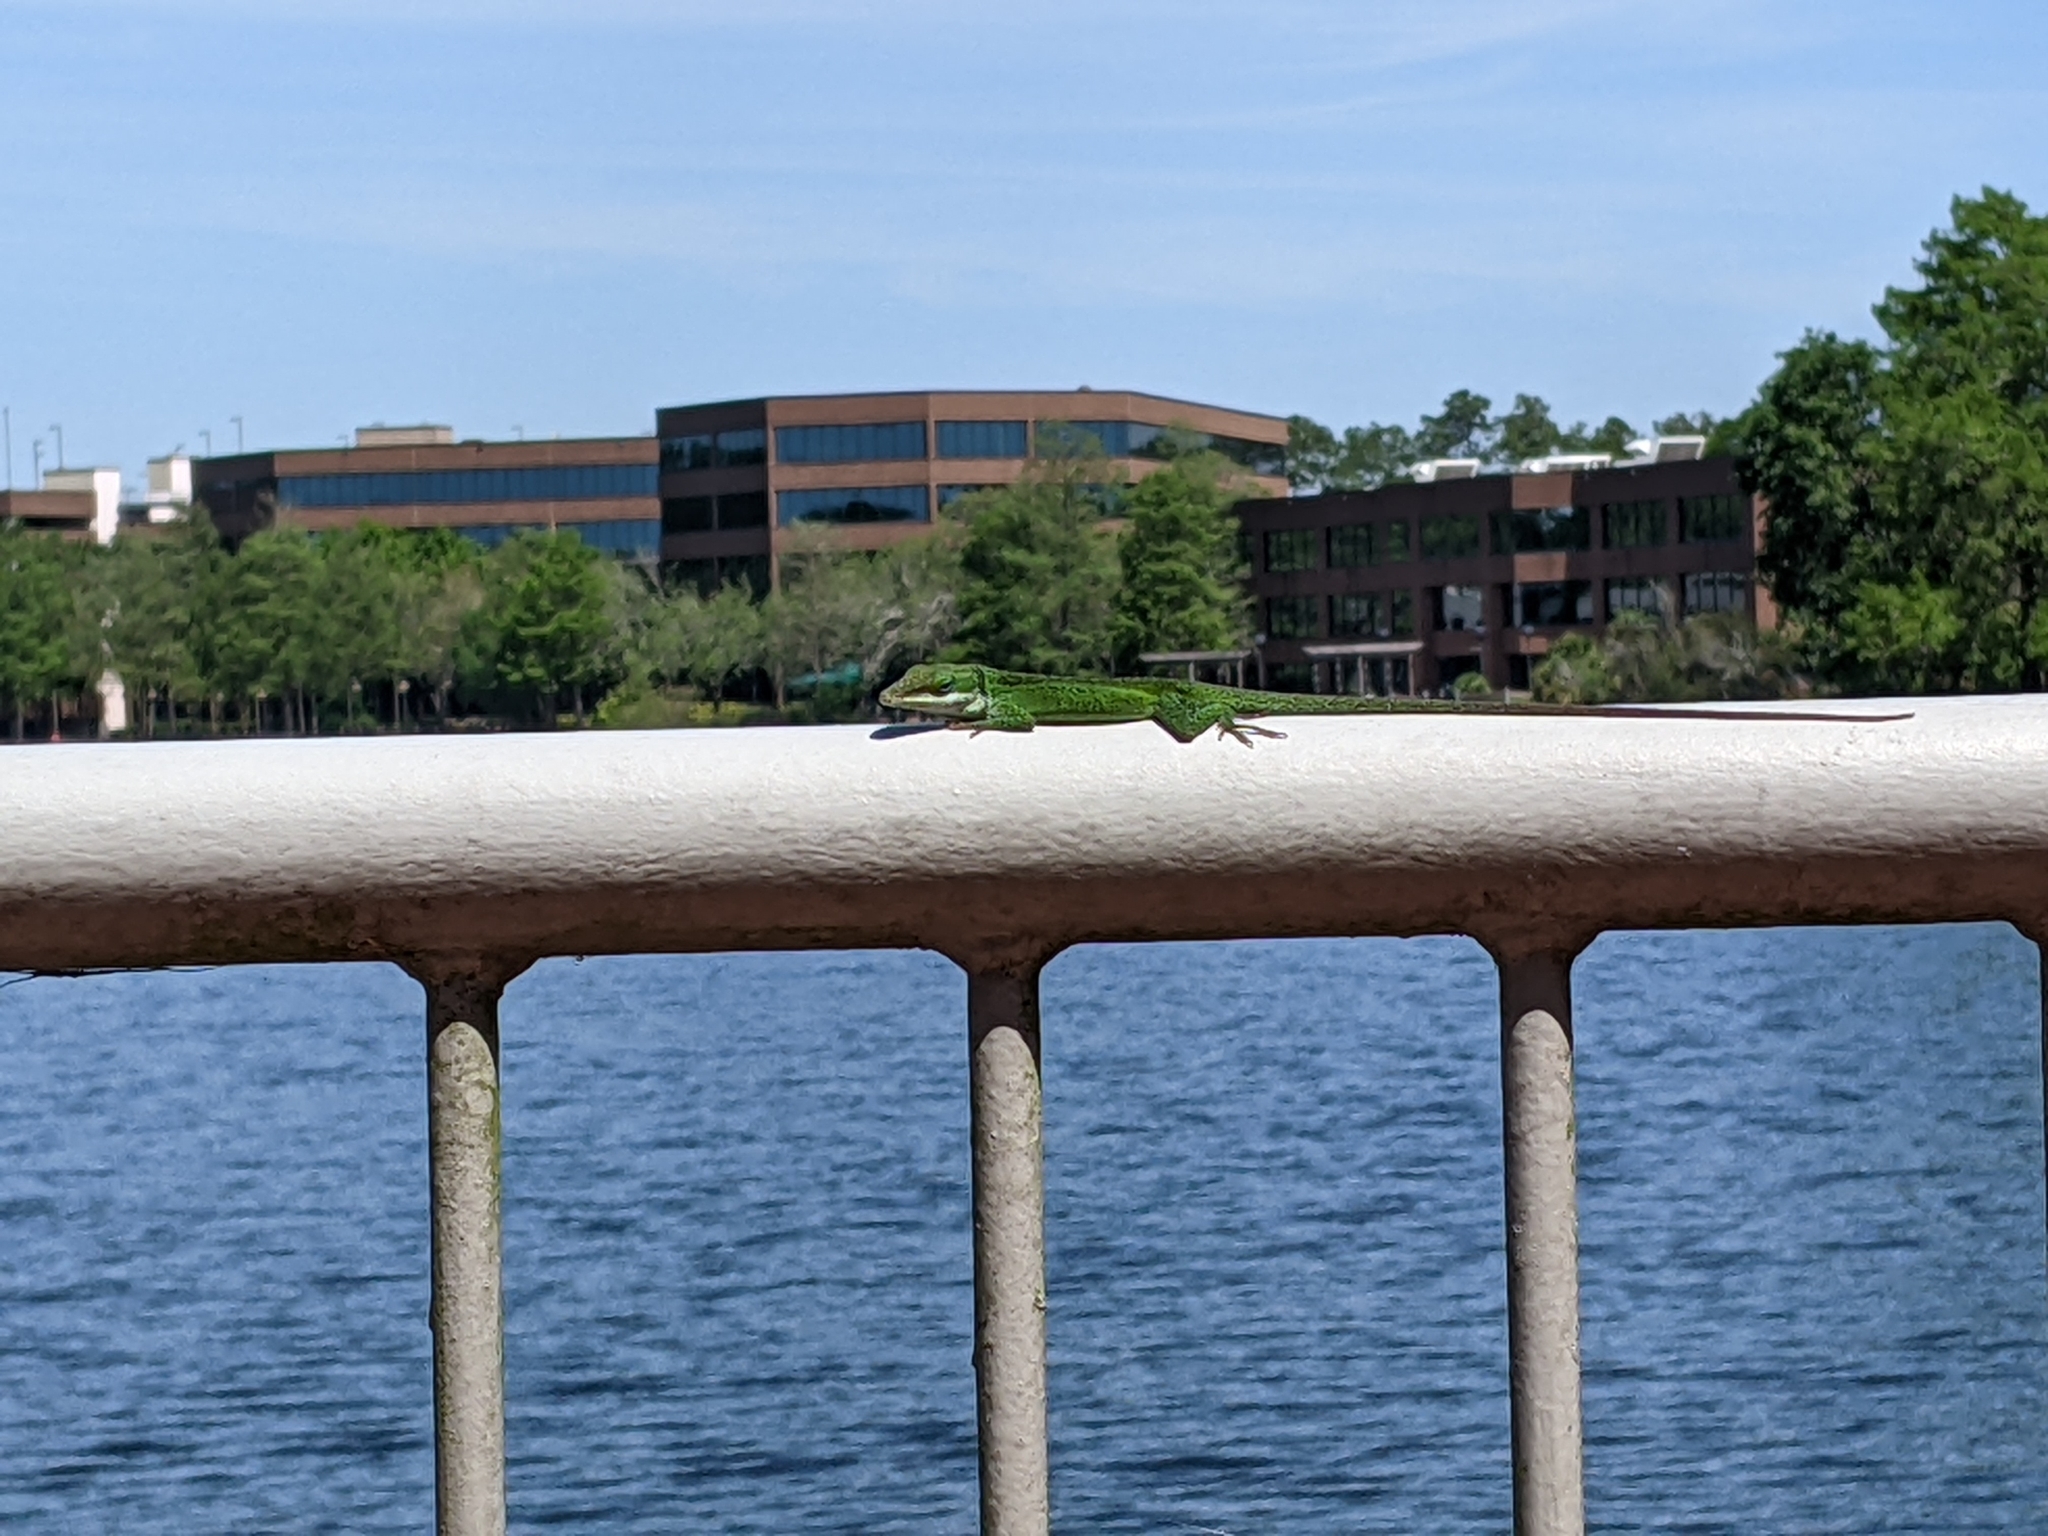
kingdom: Animalia
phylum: Chordata
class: Squamata
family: Dactyloidae
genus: Anolis
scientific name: Anolis carolinensis
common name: Green anole
